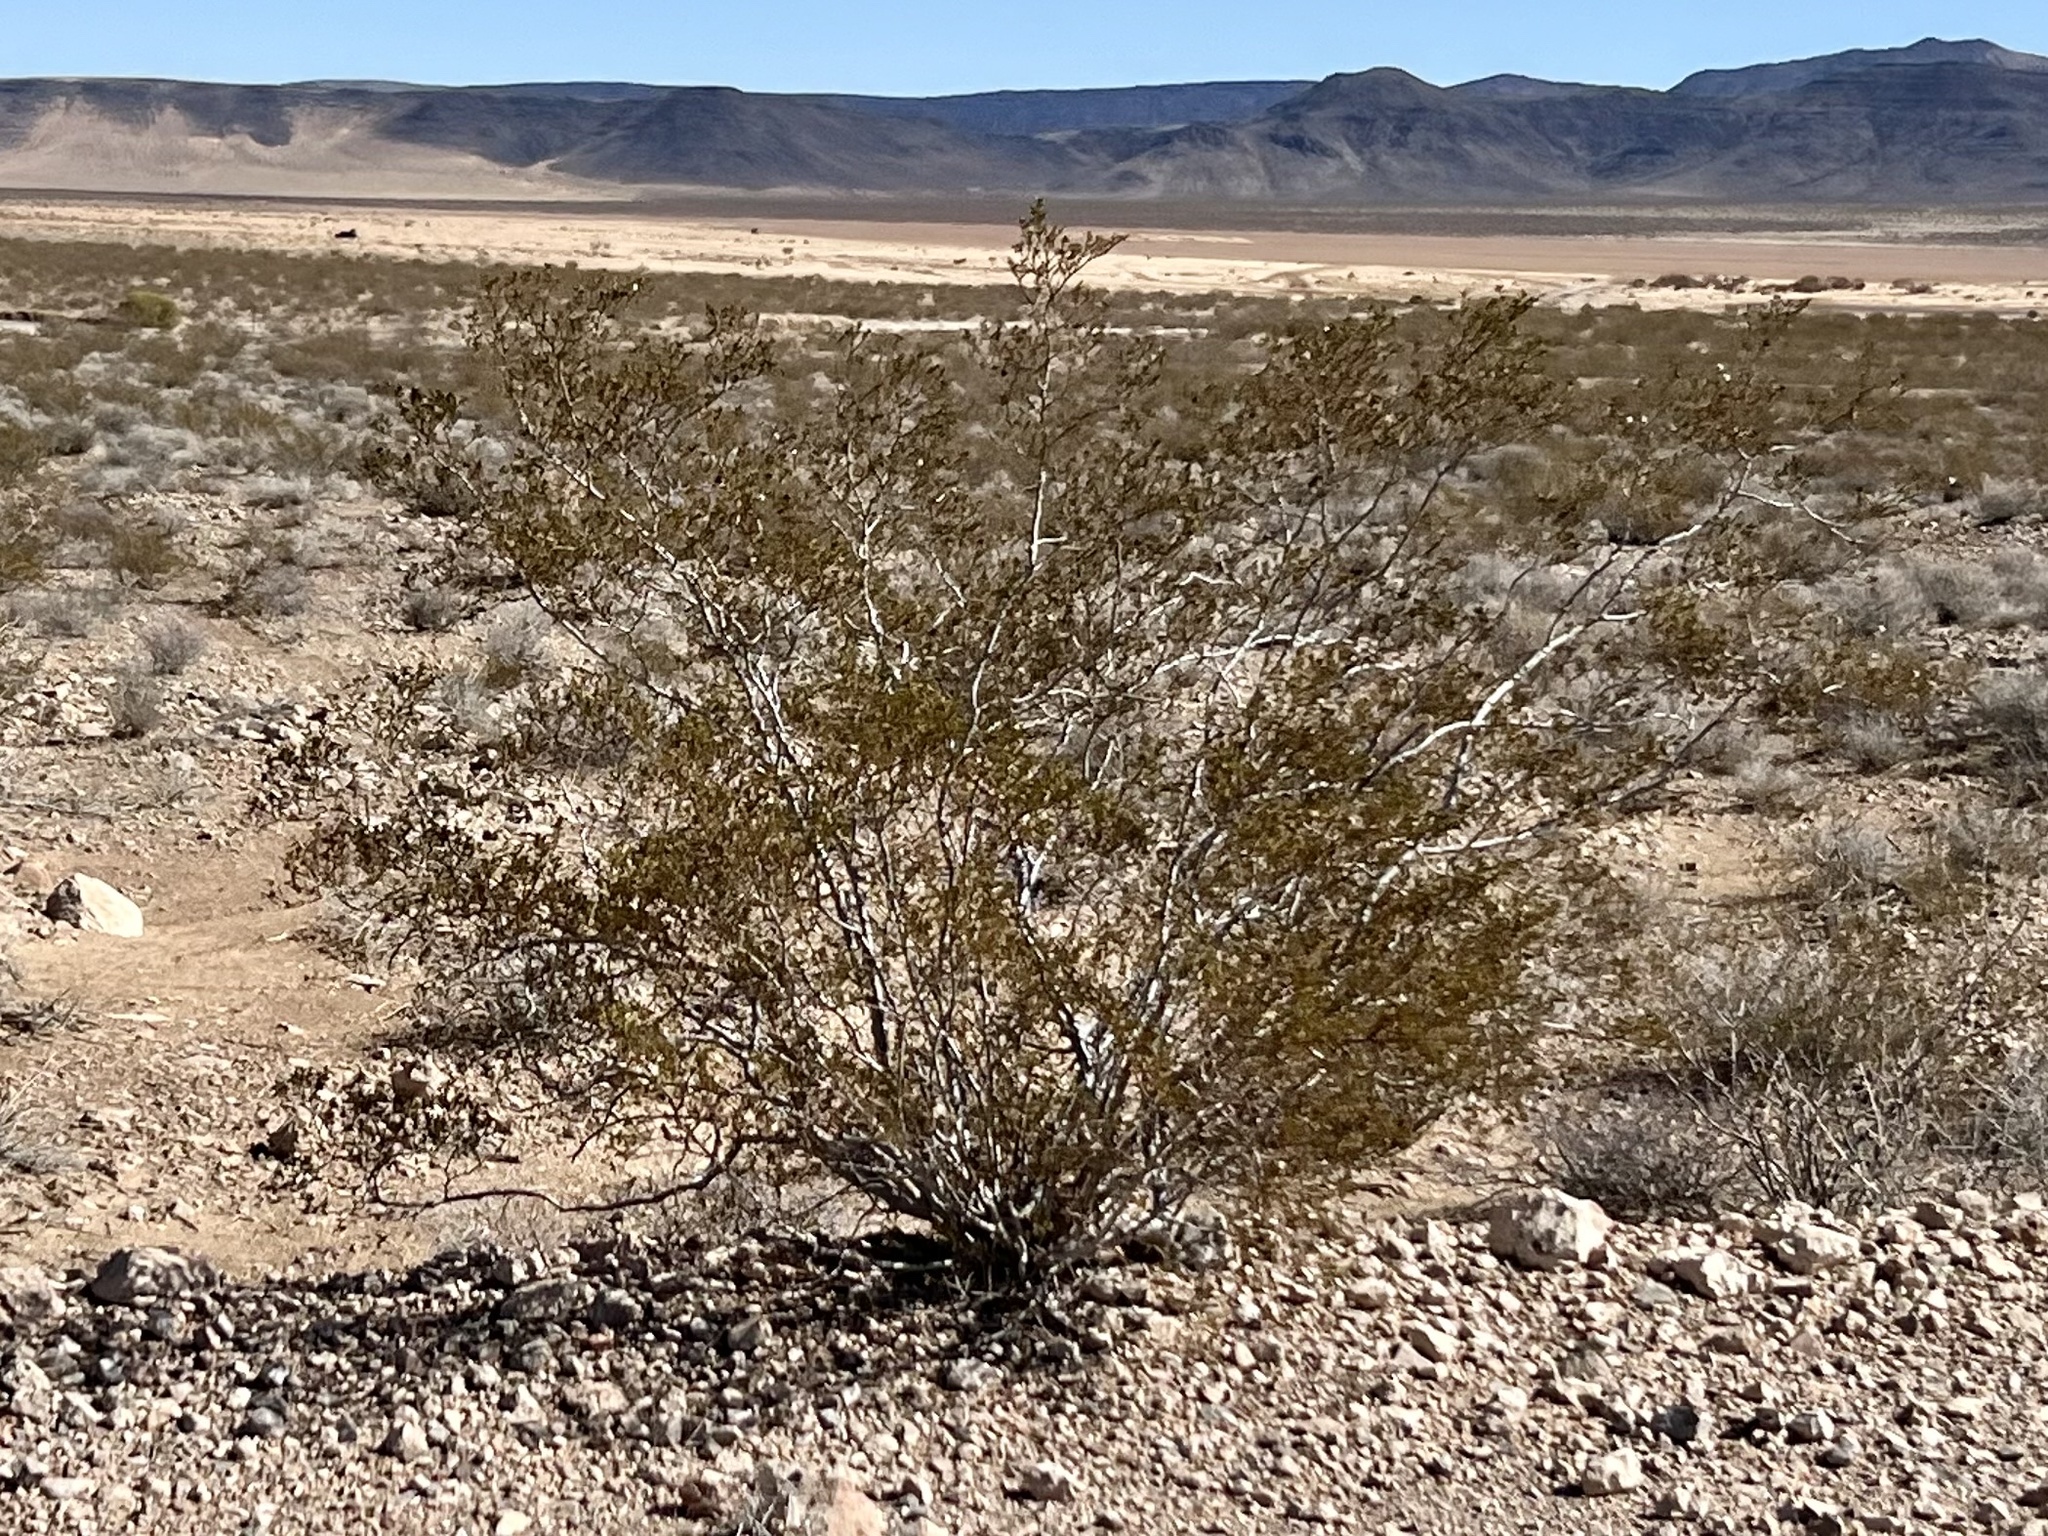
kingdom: Plantae
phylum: Tracheophyta
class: Magnoliopsida
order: Zygophyllales
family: Zygophyllaceae
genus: Larrea
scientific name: Larrea tridentata
